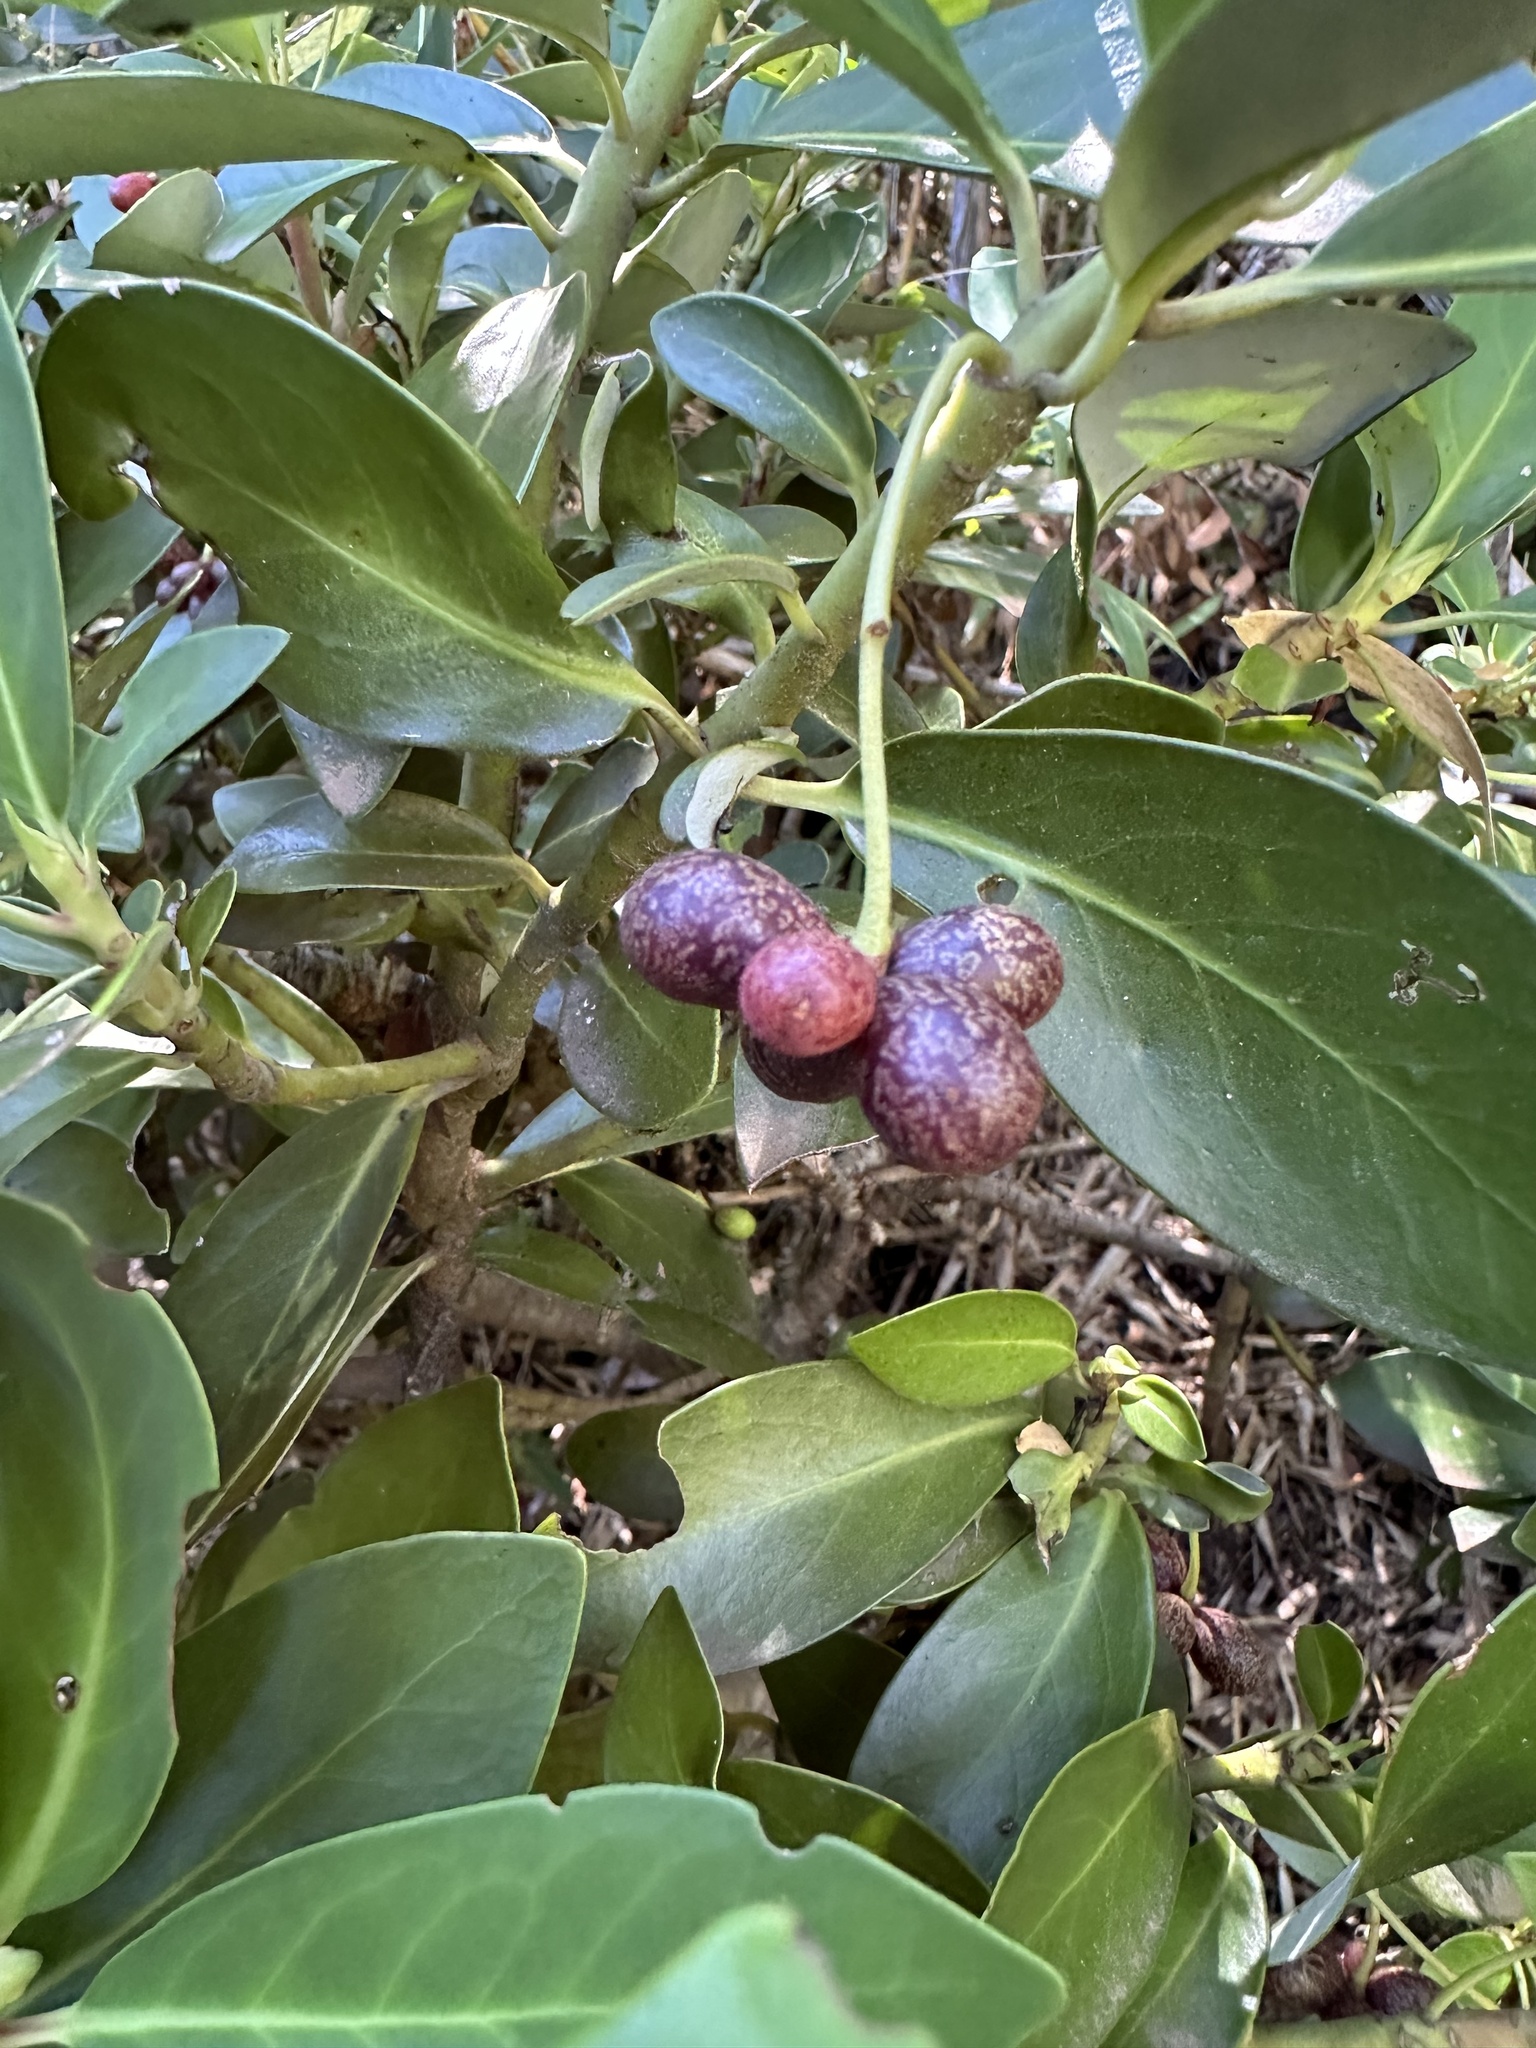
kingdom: Plantae
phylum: Tracheophyta
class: Magnoliopsida
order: Canellales
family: Winteraceae
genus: Drimys
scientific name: Drimys andina
